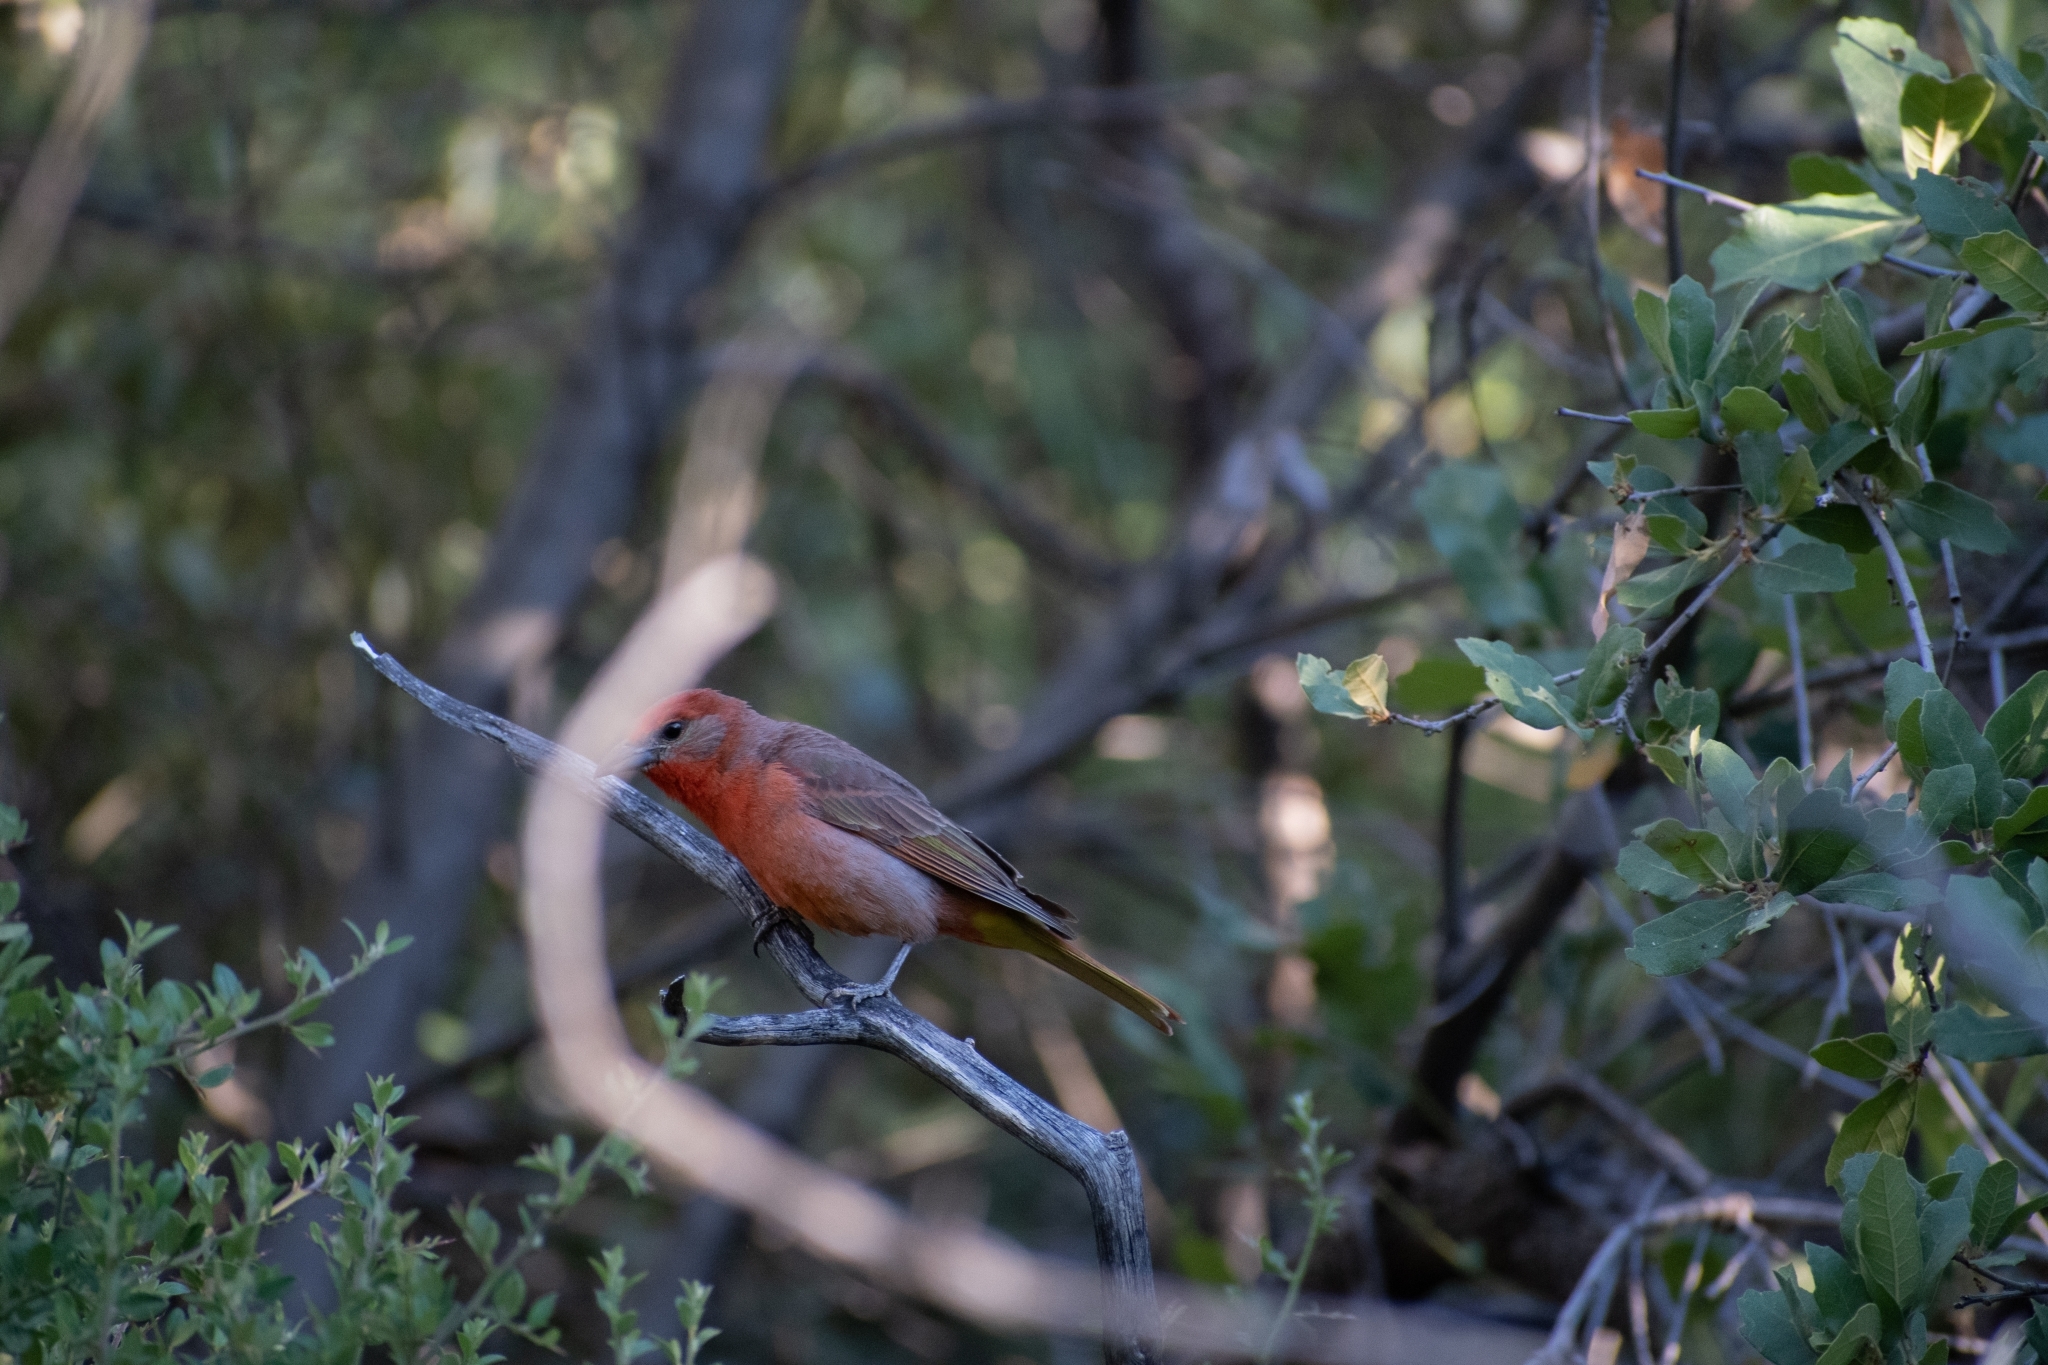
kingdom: Animalia
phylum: Chordata
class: Aves
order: Passeriformes
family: Cardinalidae
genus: Piranga
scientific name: Piranga flava
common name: Red tanager
